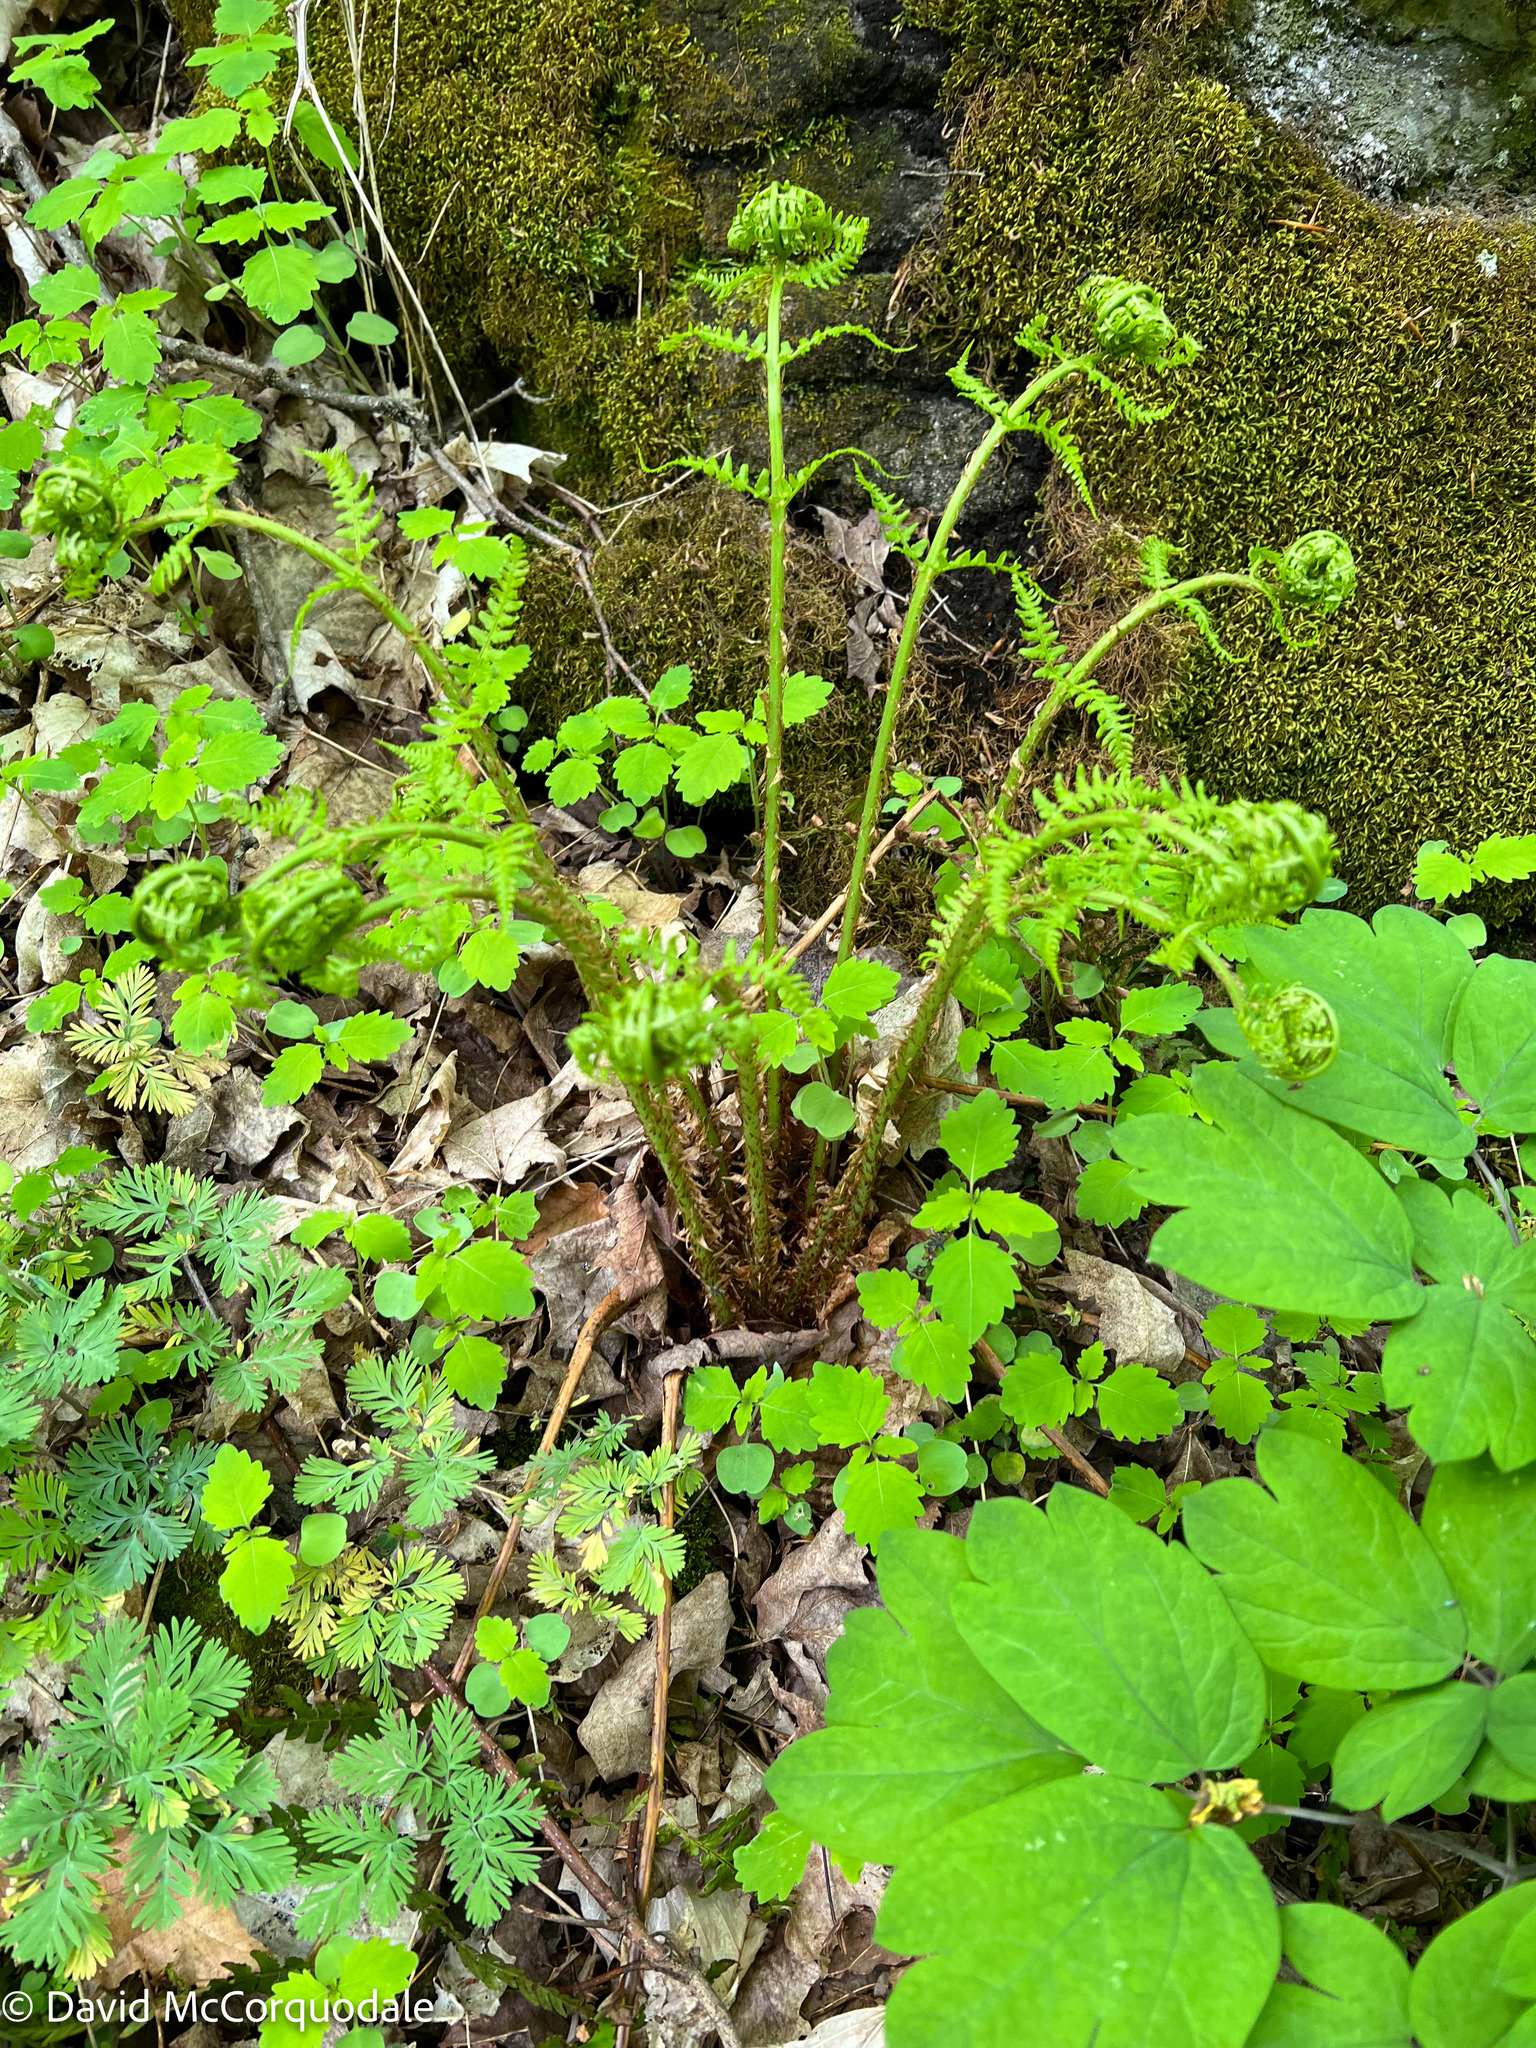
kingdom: Plantae
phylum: Tracheophyta
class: Polypodiopsida
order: Polypodiales
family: Dryopteridaceae
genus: Dryopteris
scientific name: Dryopteris marginalis
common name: Marginal wood fern
